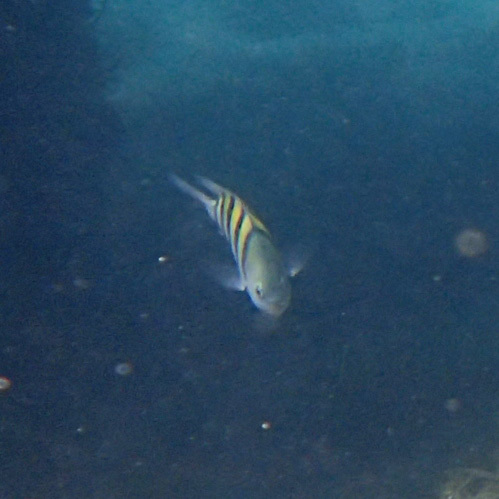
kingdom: Animalia
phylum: Chordata
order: Perciformes
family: Pomacentridae
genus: Abudefduf
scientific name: Abudefduf saxatilis
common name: Sergeant major
